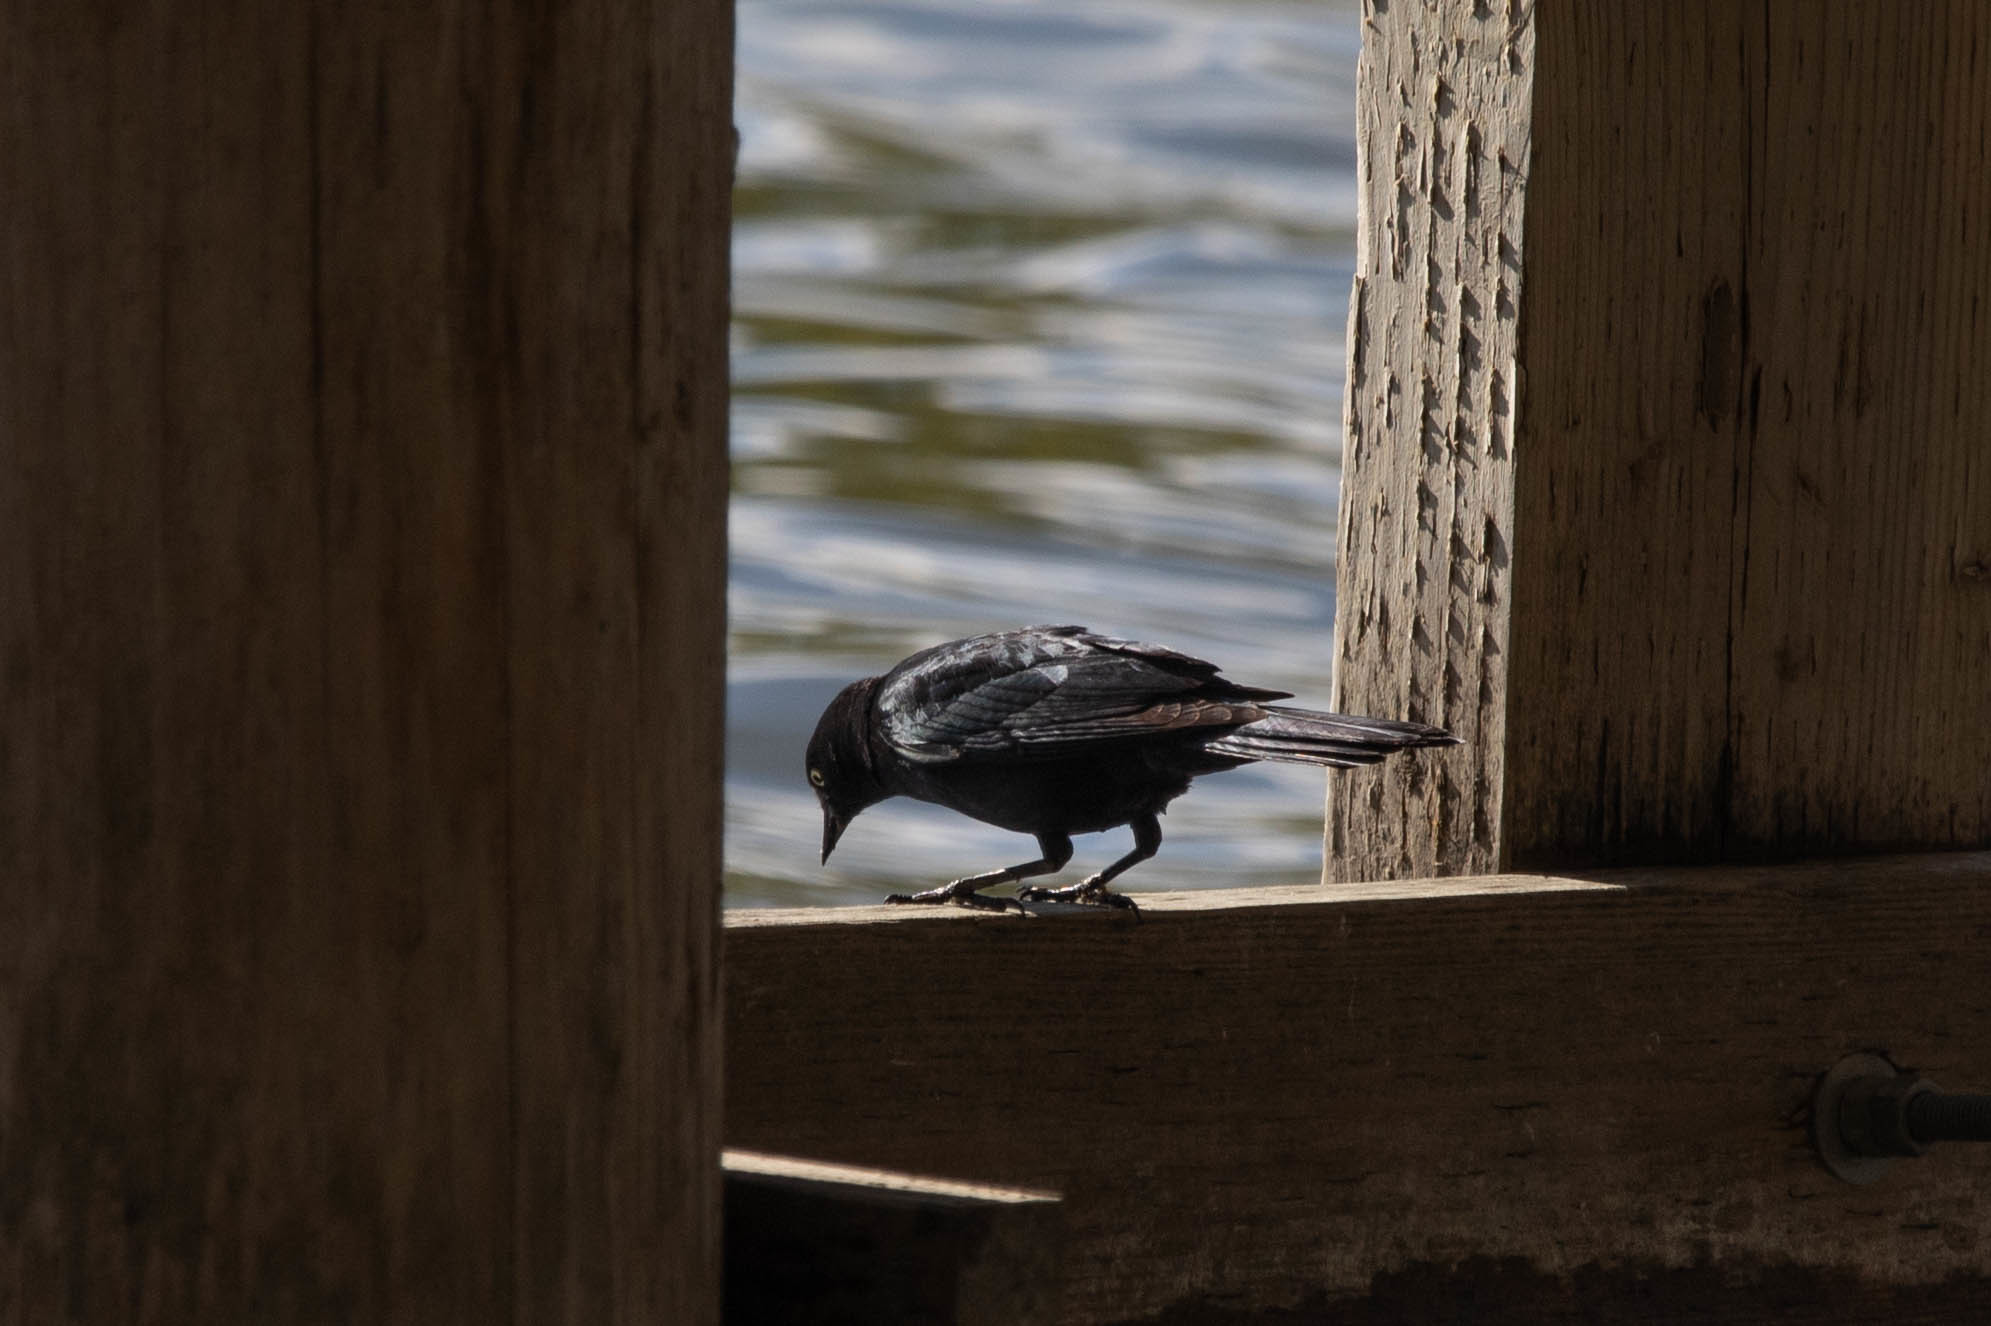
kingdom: Animalia
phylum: Chordata
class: Aves
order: Passeriformes
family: Icteridae
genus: Euphagus
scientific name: Euphagus cyanocephalus
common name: Brewer's blackbird
